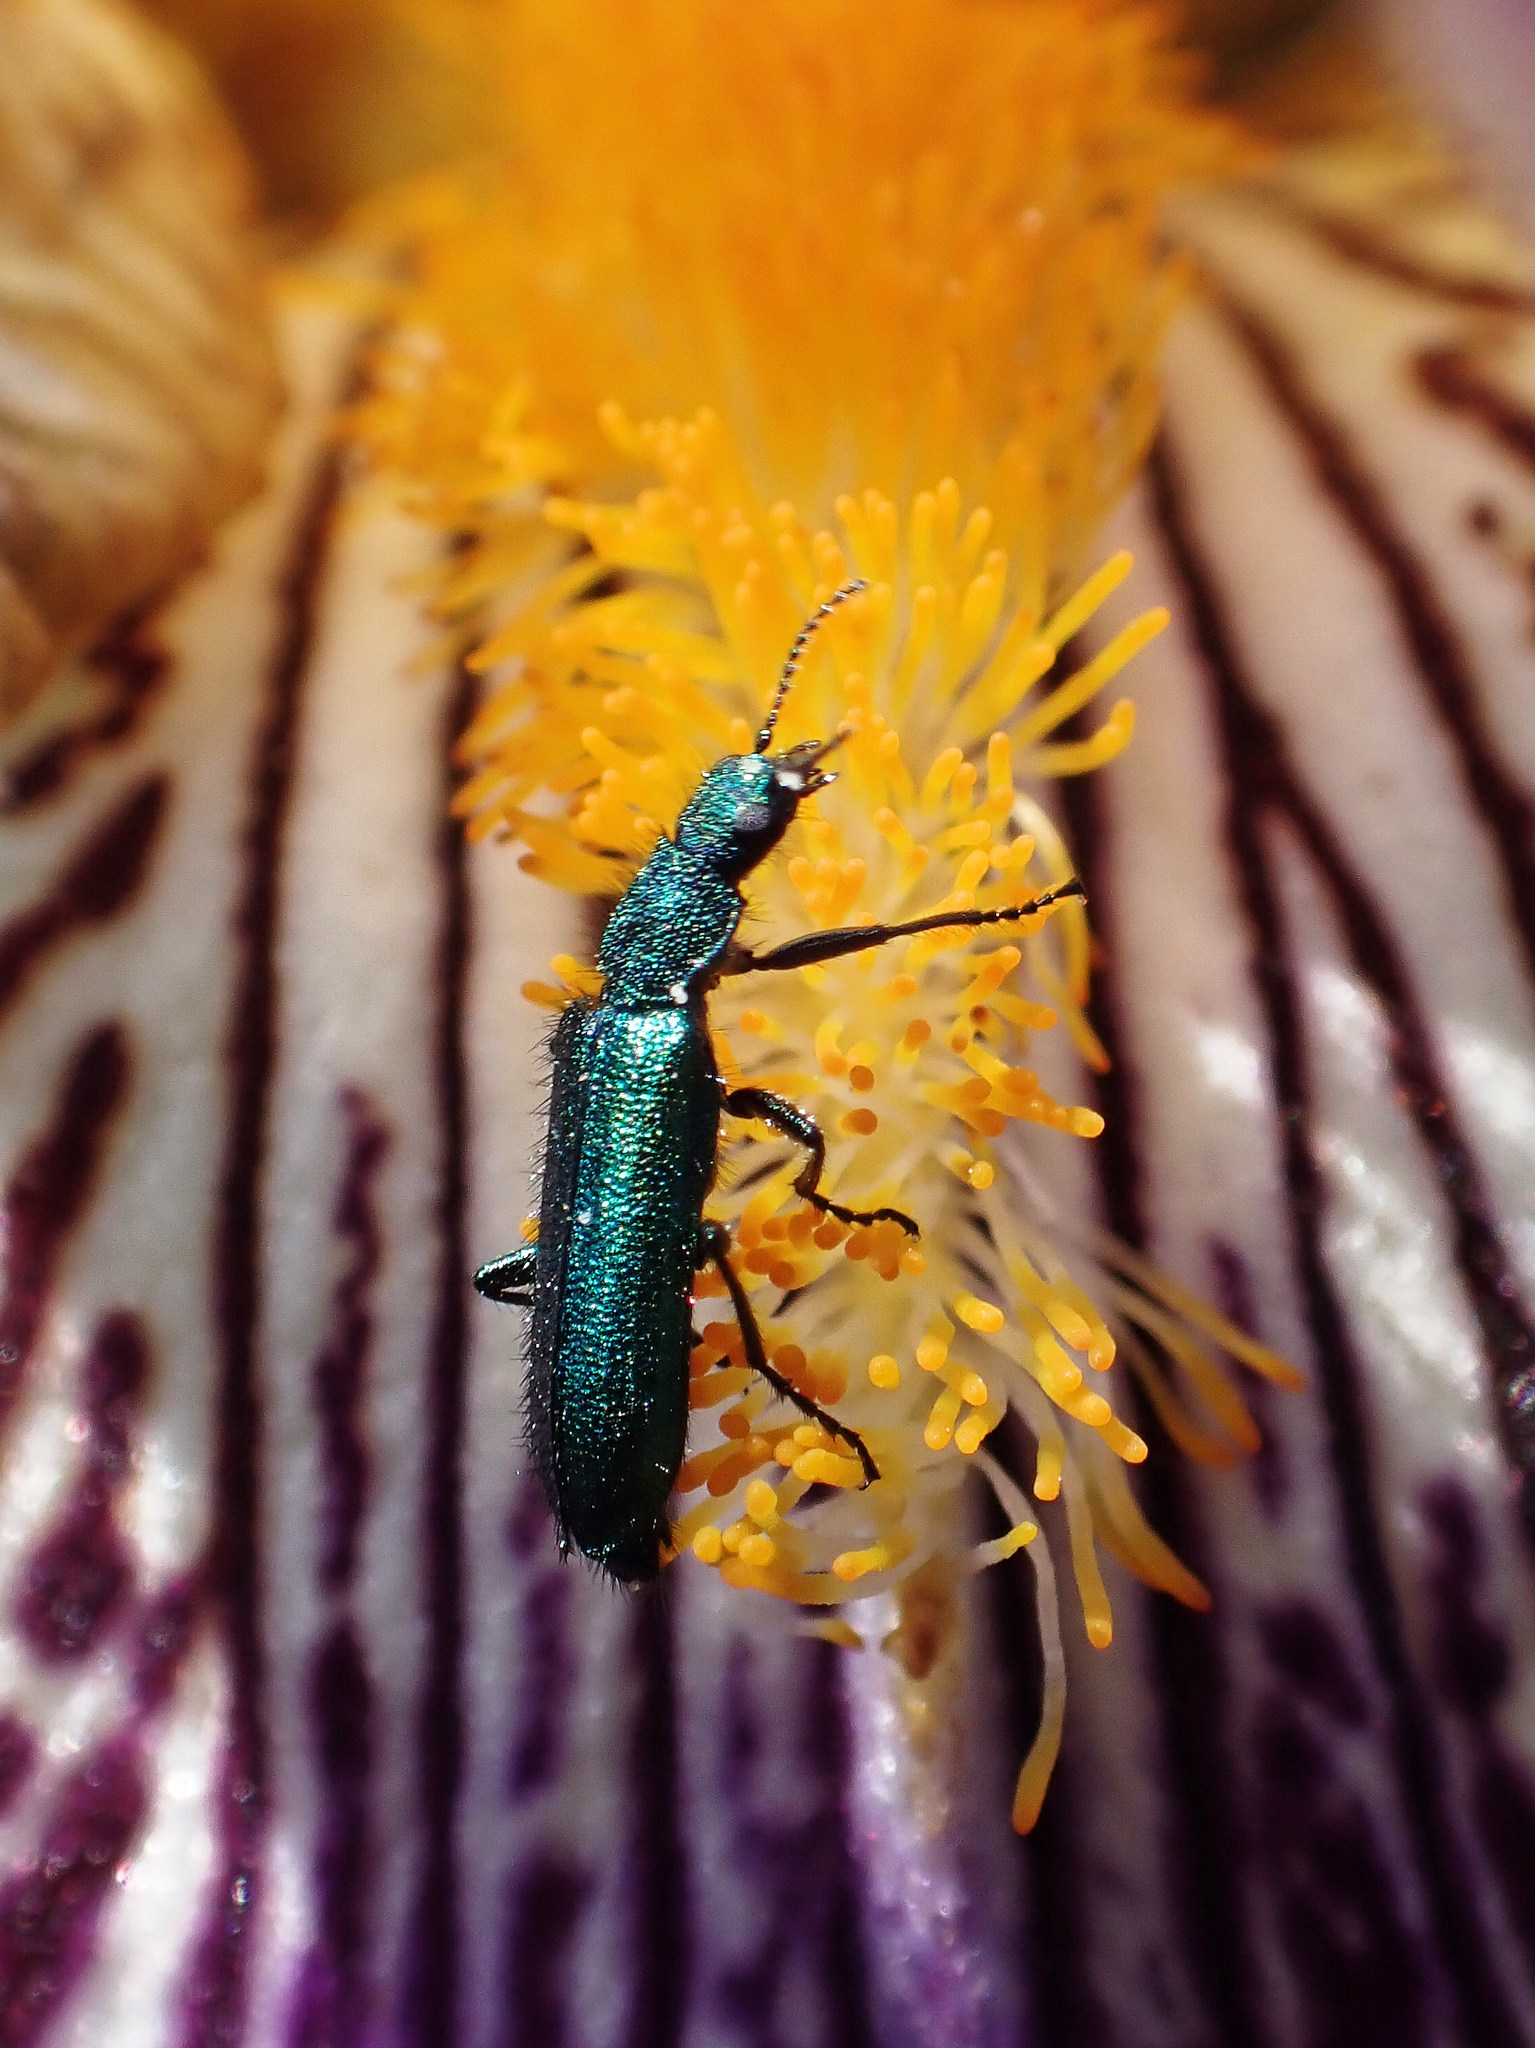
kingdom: Animalia
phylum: Arthropoda
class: Insecta
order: Coleoptera
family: Dasytidae
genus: Psilothrix
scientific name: Psilothrix viridicoerulea
